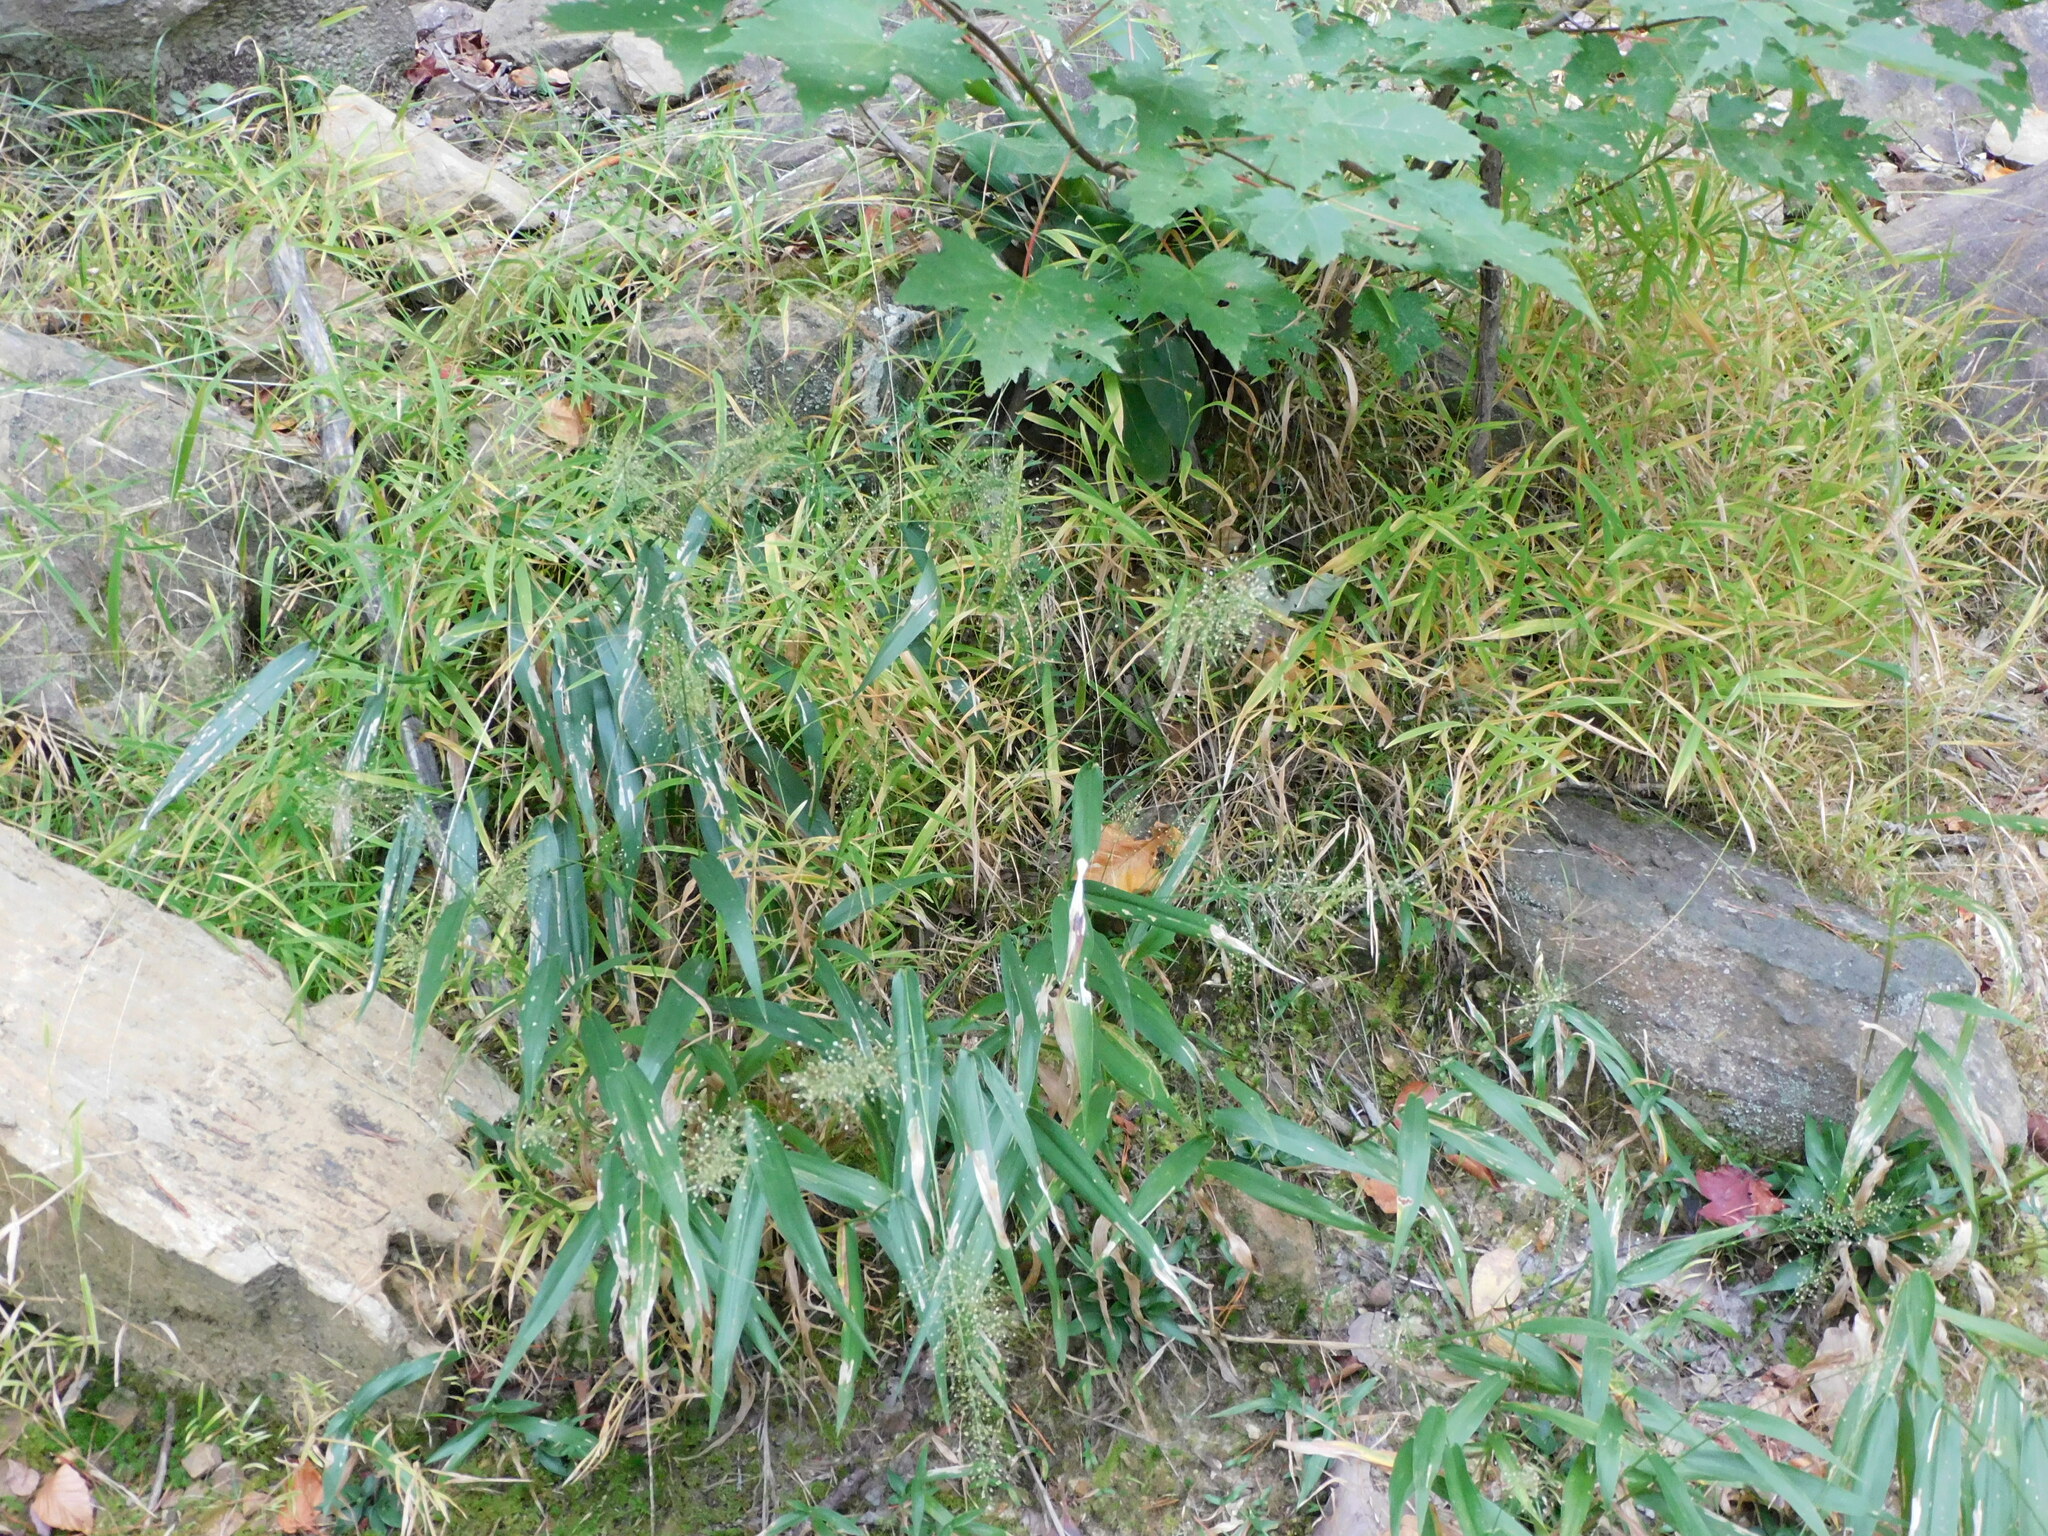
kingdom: Plantae
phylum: Tracheophyta
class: Liliopsida
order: Poales
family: Poaceae
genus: Dichanthelium
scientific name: Dichanthelium polyanthes
